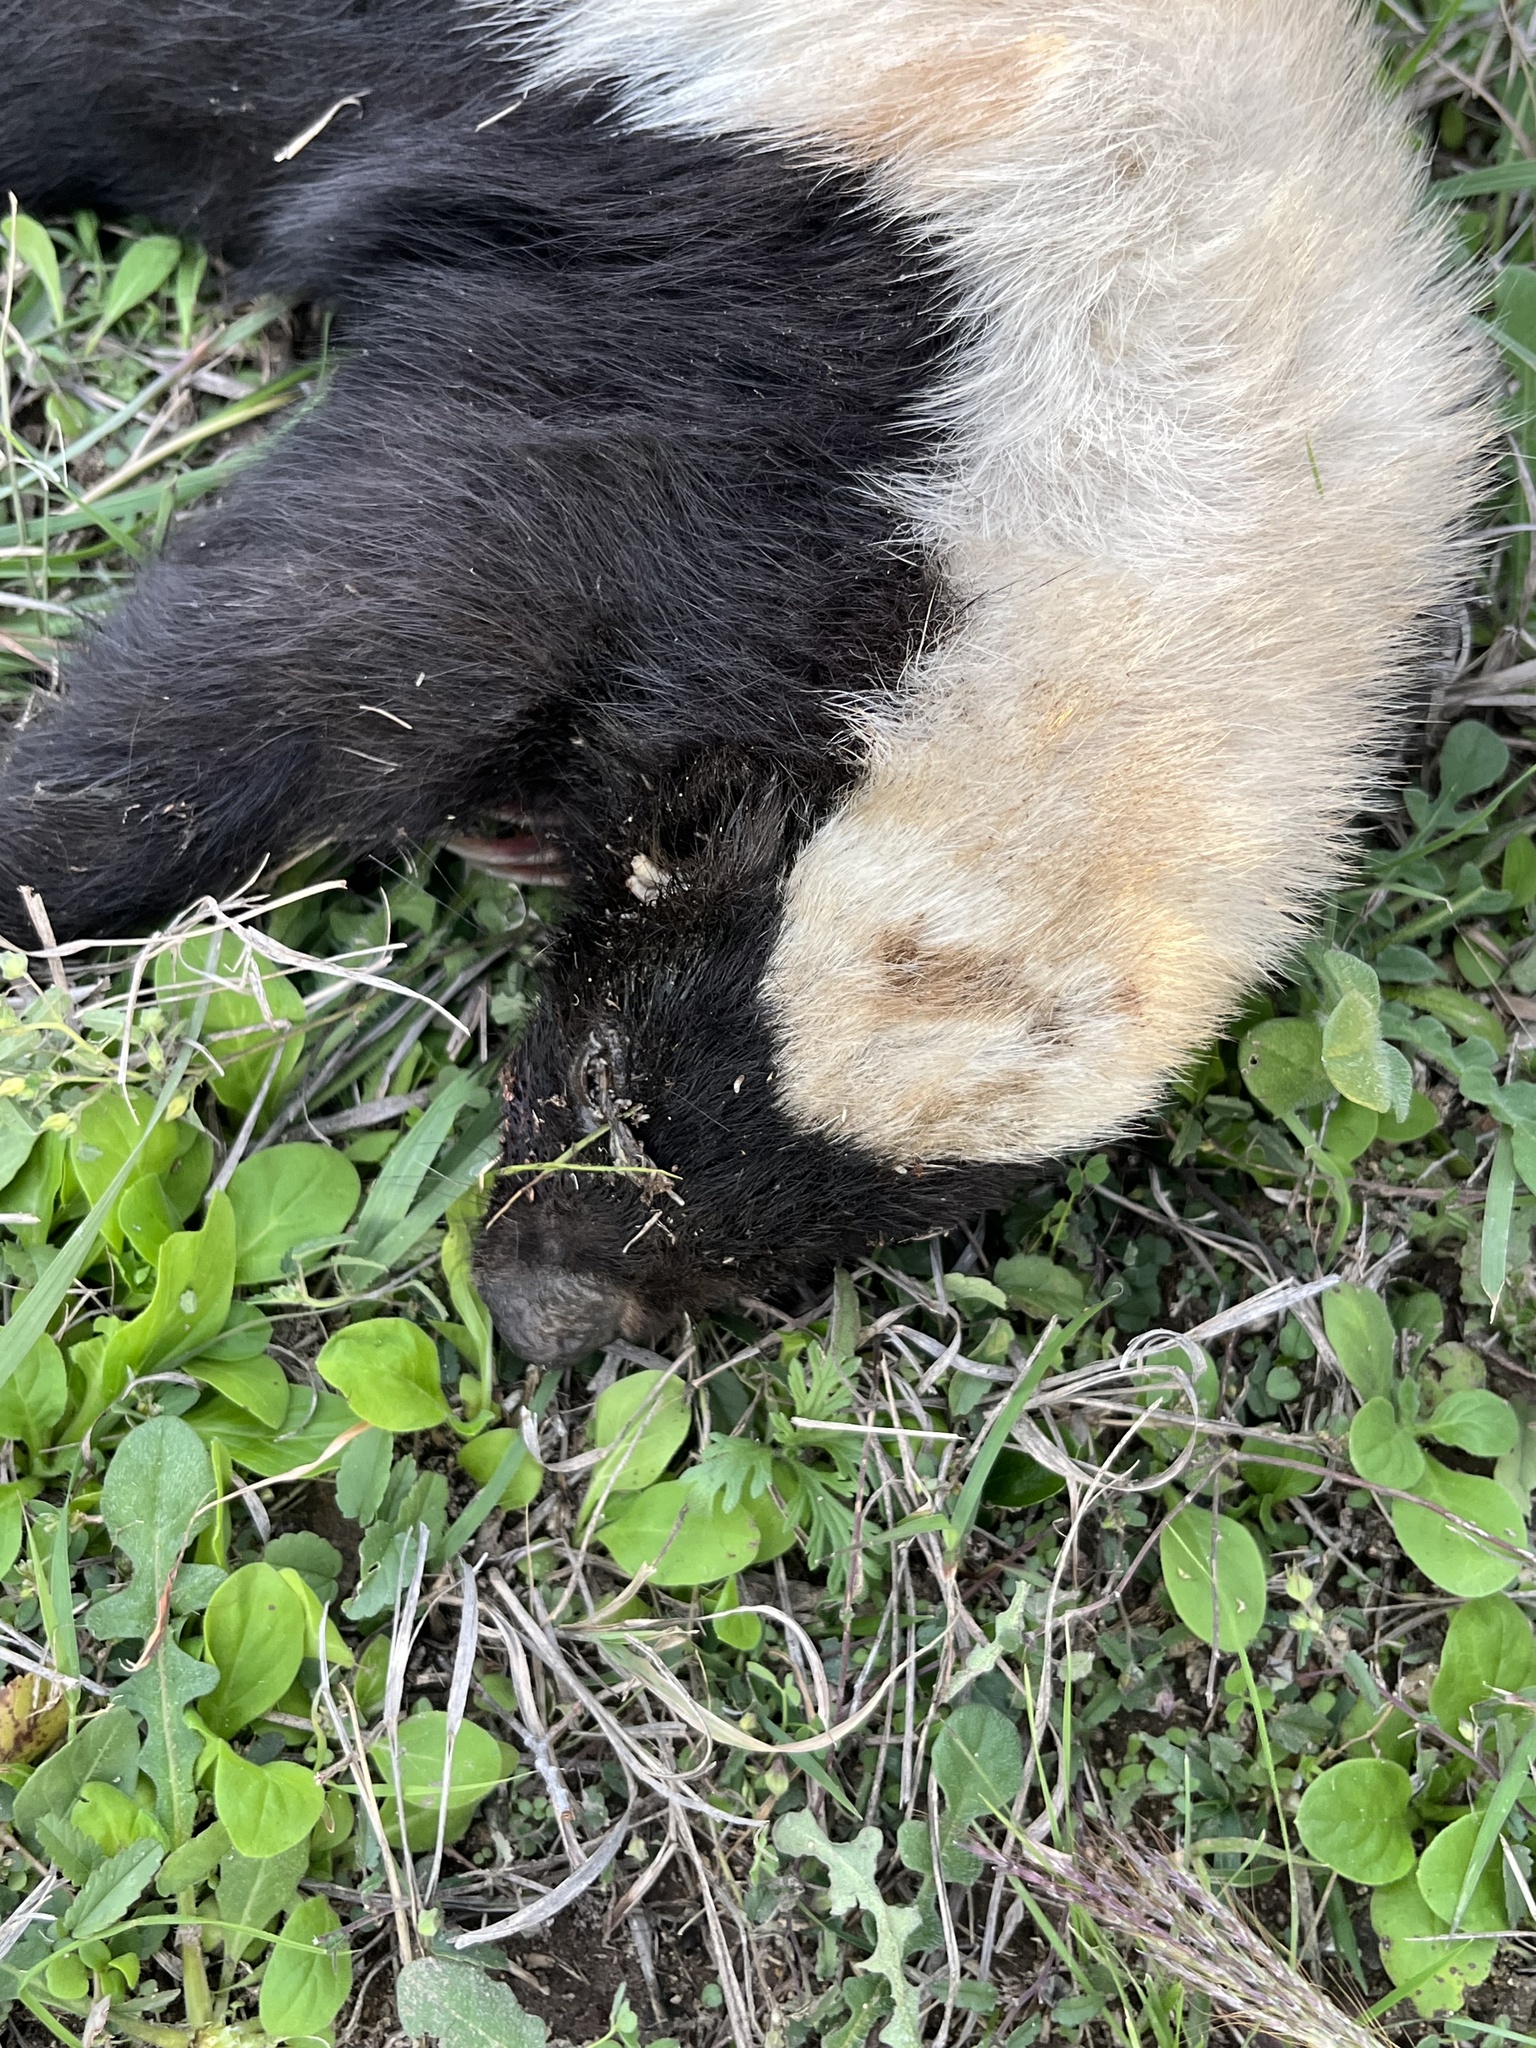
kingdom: Animalia
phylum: Chordata
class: Mammalia
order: Carnivora
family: Mephitidae
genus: Conepatus
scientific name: Conepatus leuconotus
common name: Eastern hog-nosed skunk
